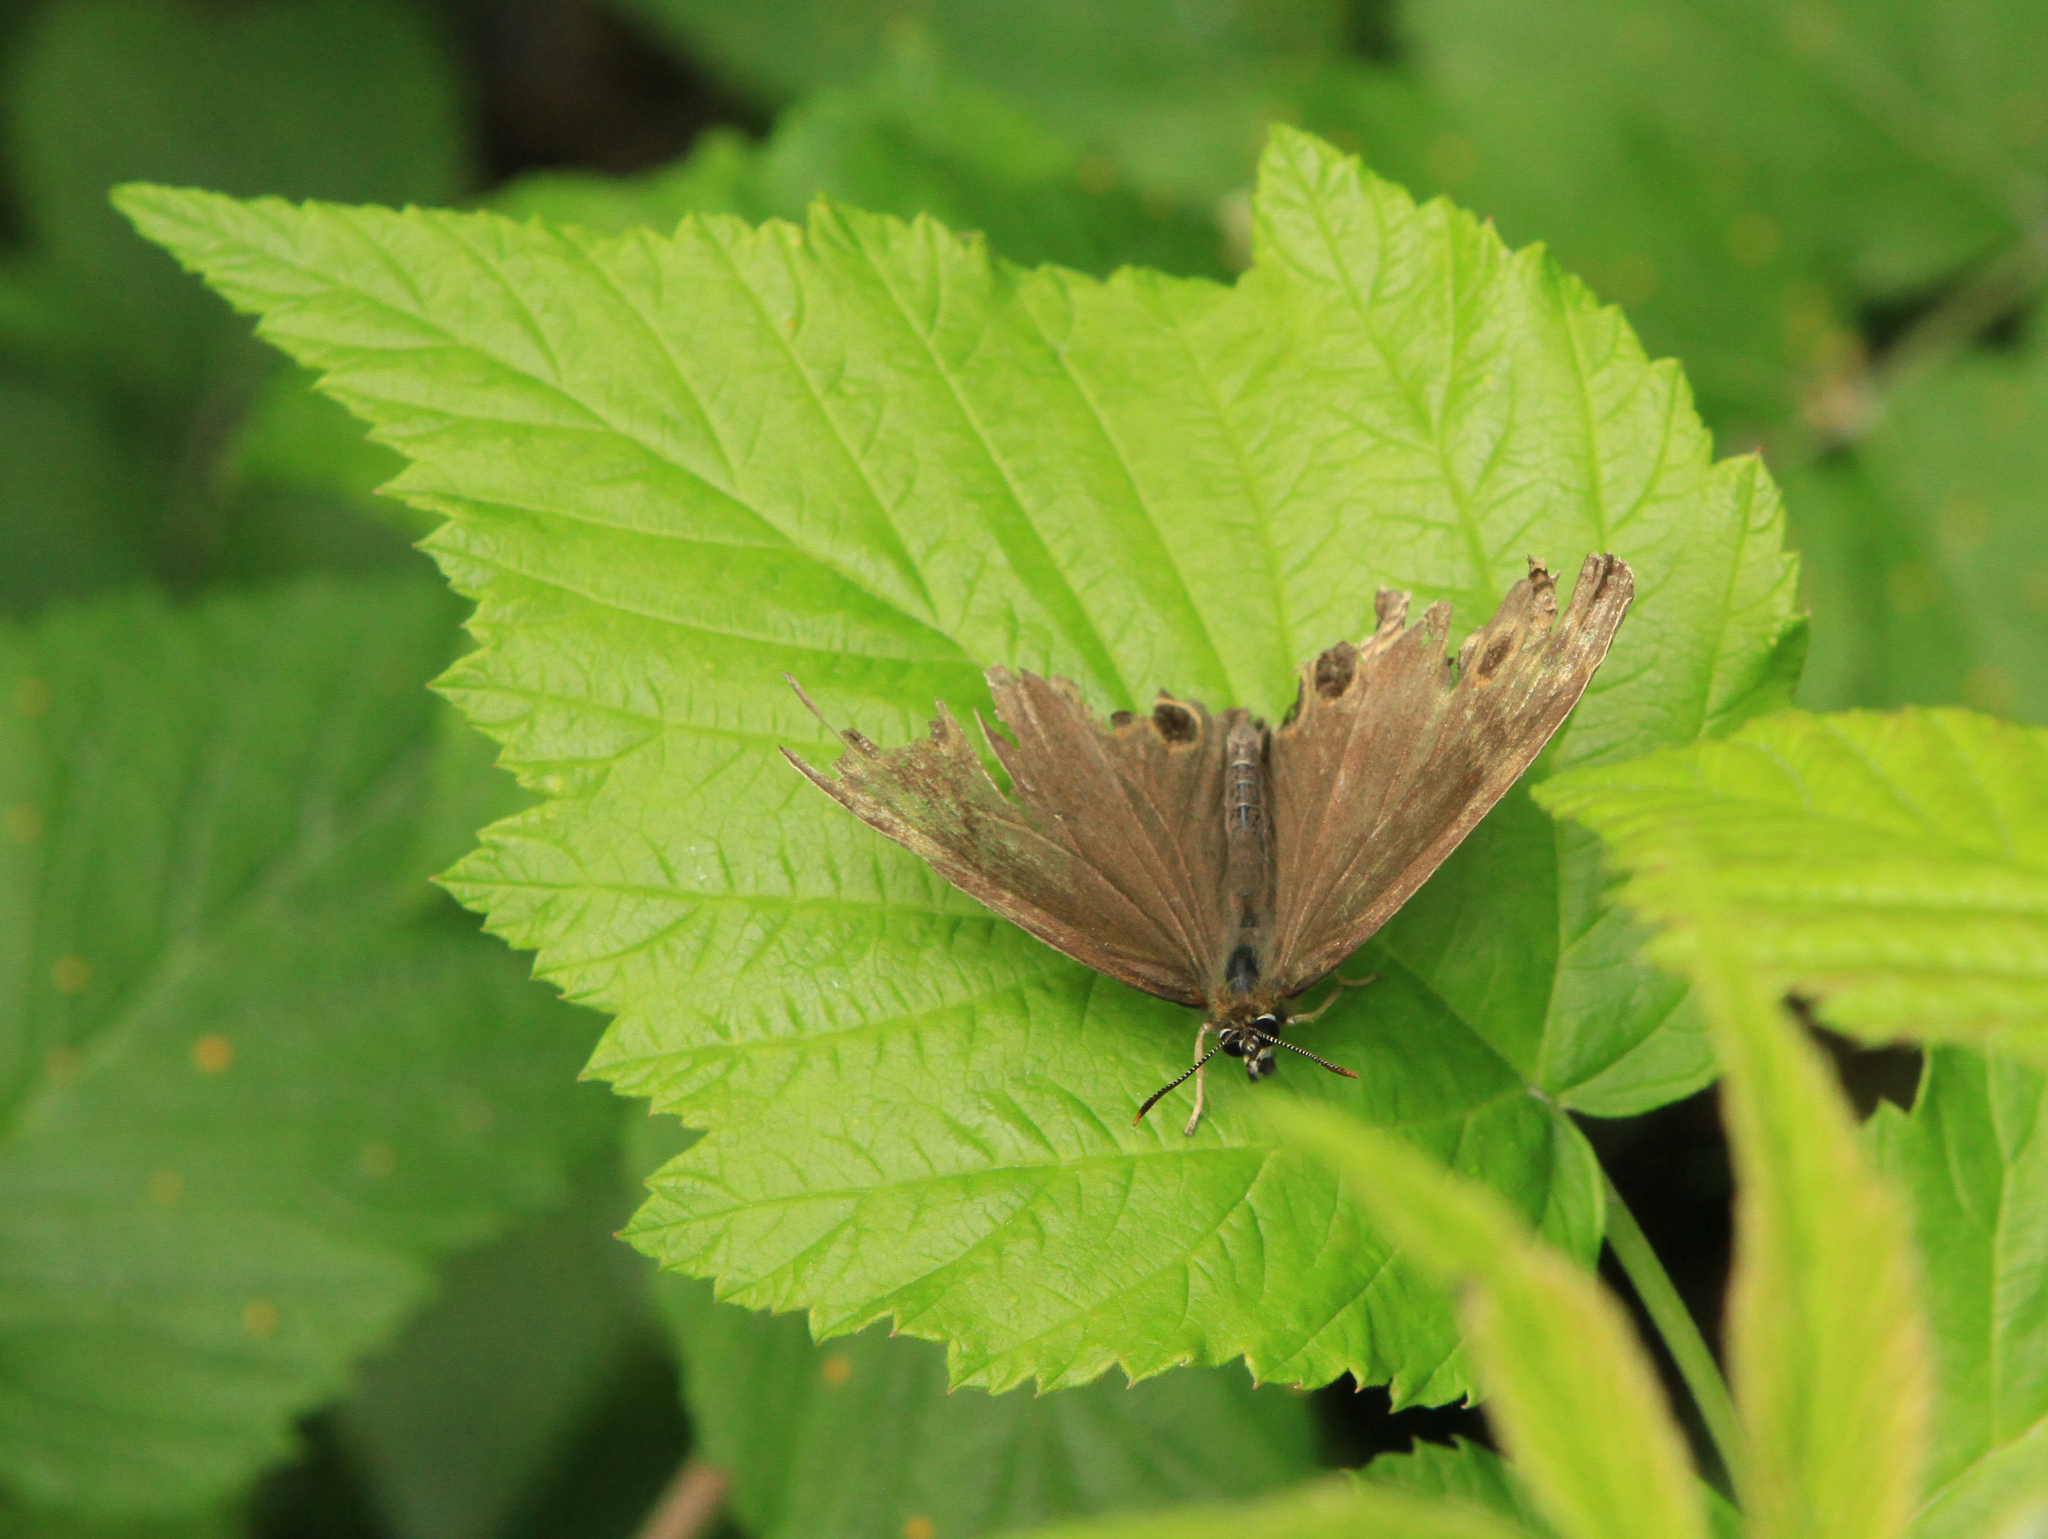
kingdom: Animalia
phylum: Arthropoda
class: Insecta
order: Lepidoptera
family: Nymphalidae
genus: Pararge
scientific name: Pararge Lopinga achine
